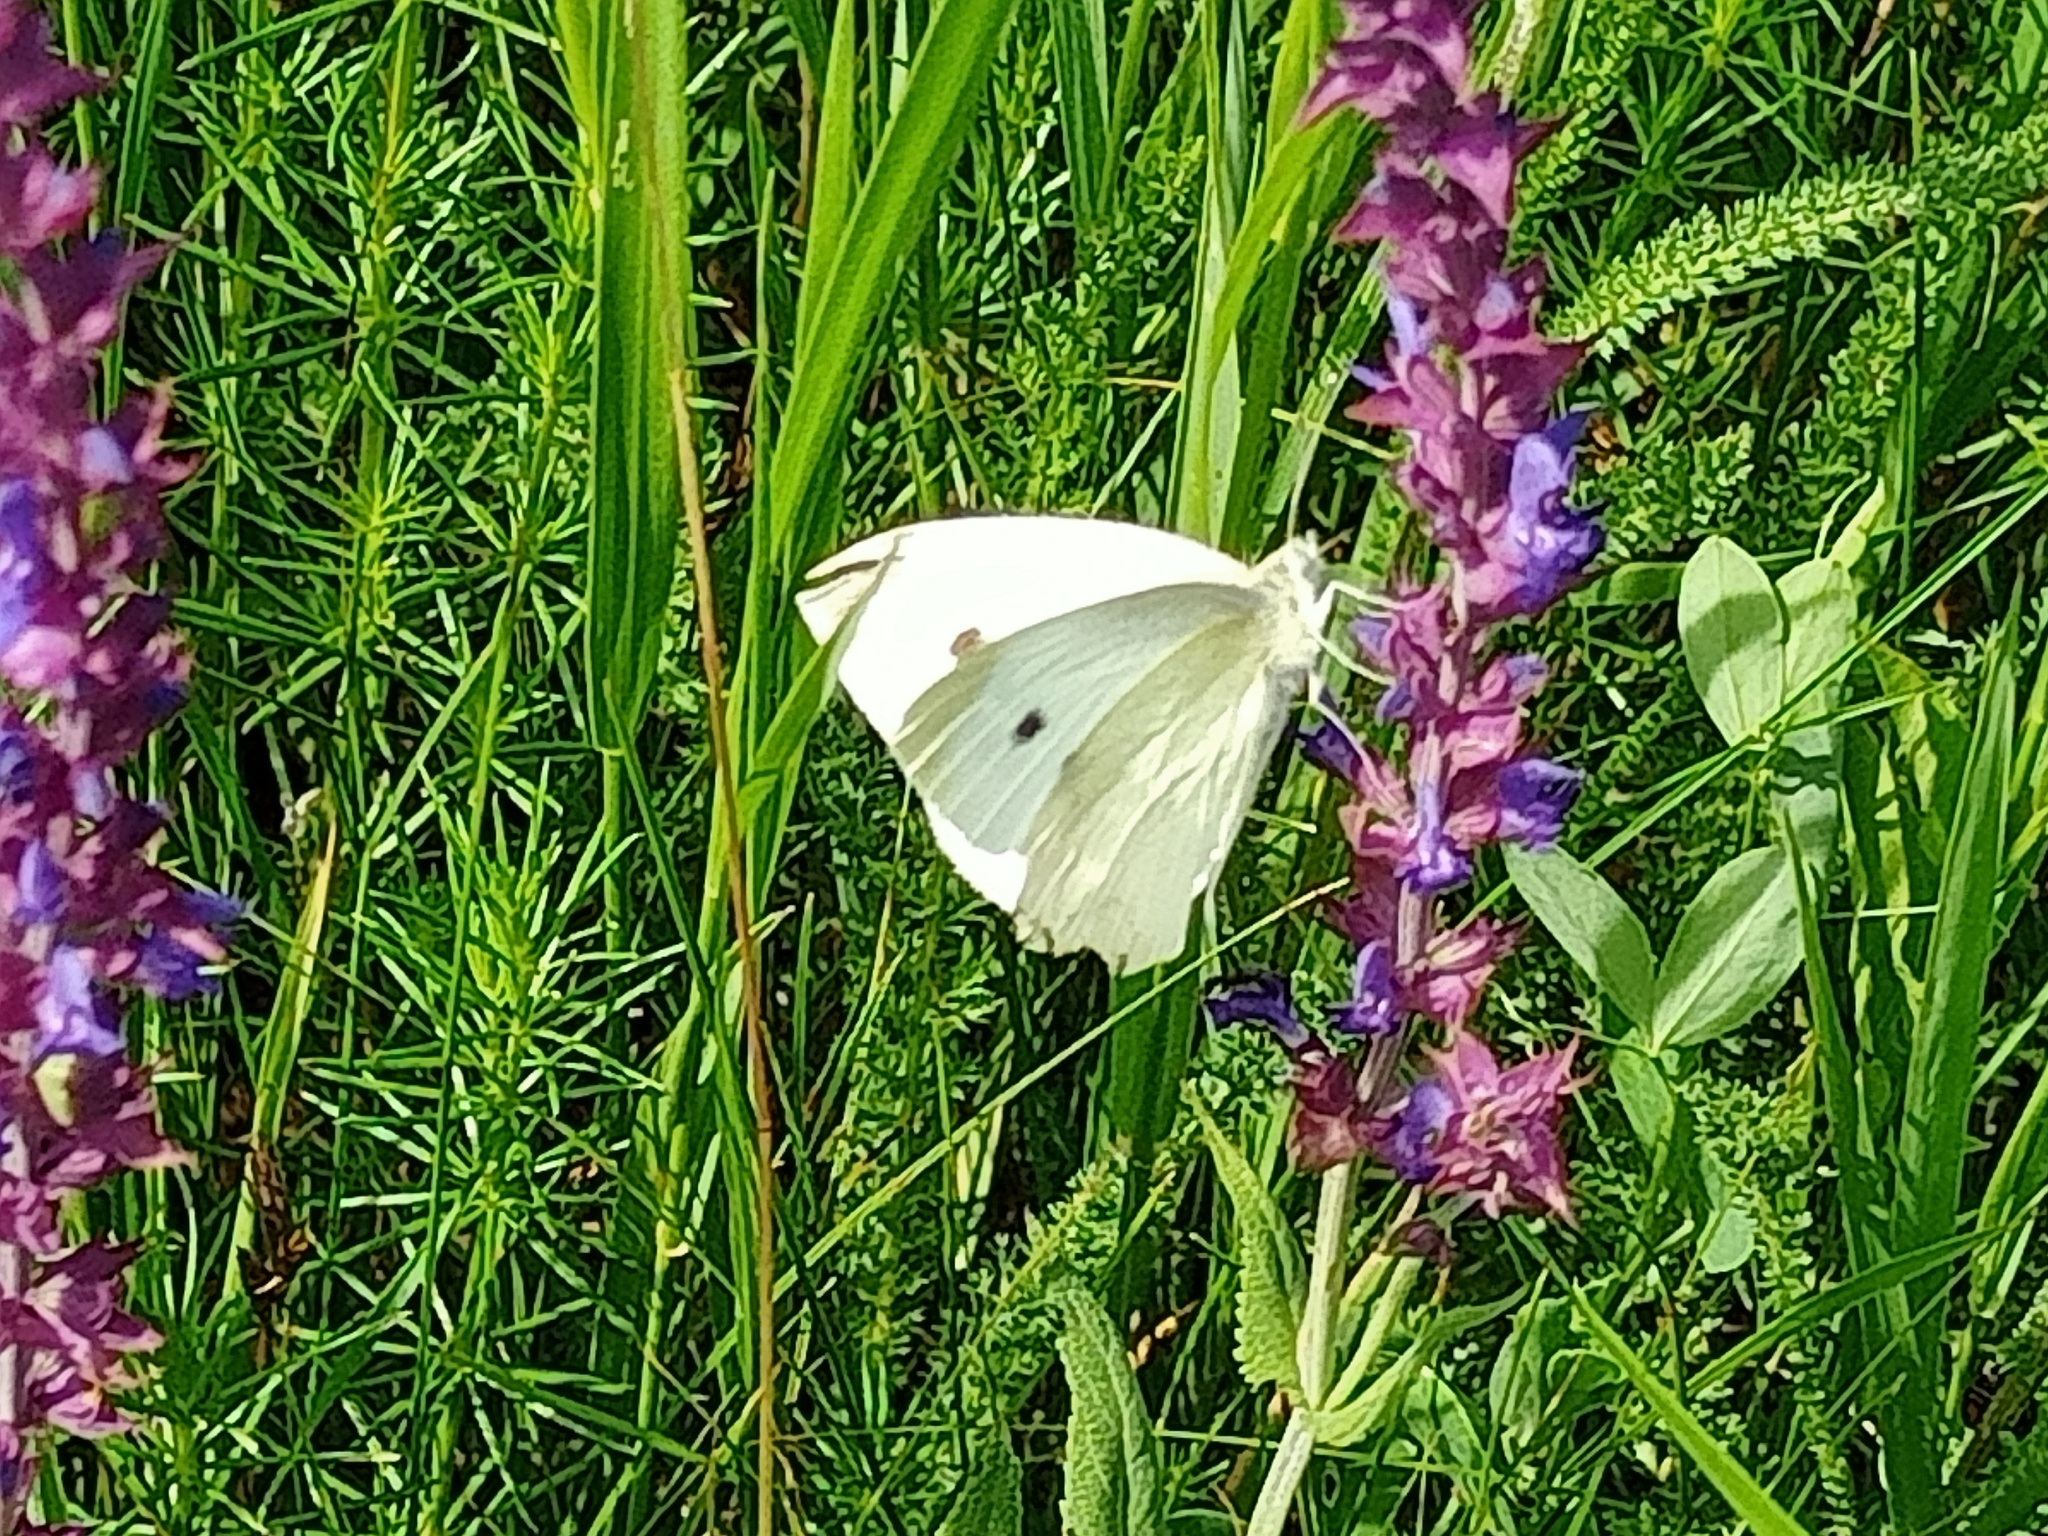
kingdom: Animalia
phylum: Arthropoda
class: Insecta
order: Lepidoptera
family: Pieridae
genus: Pieris
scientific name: Pieris rapae
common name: Small white
